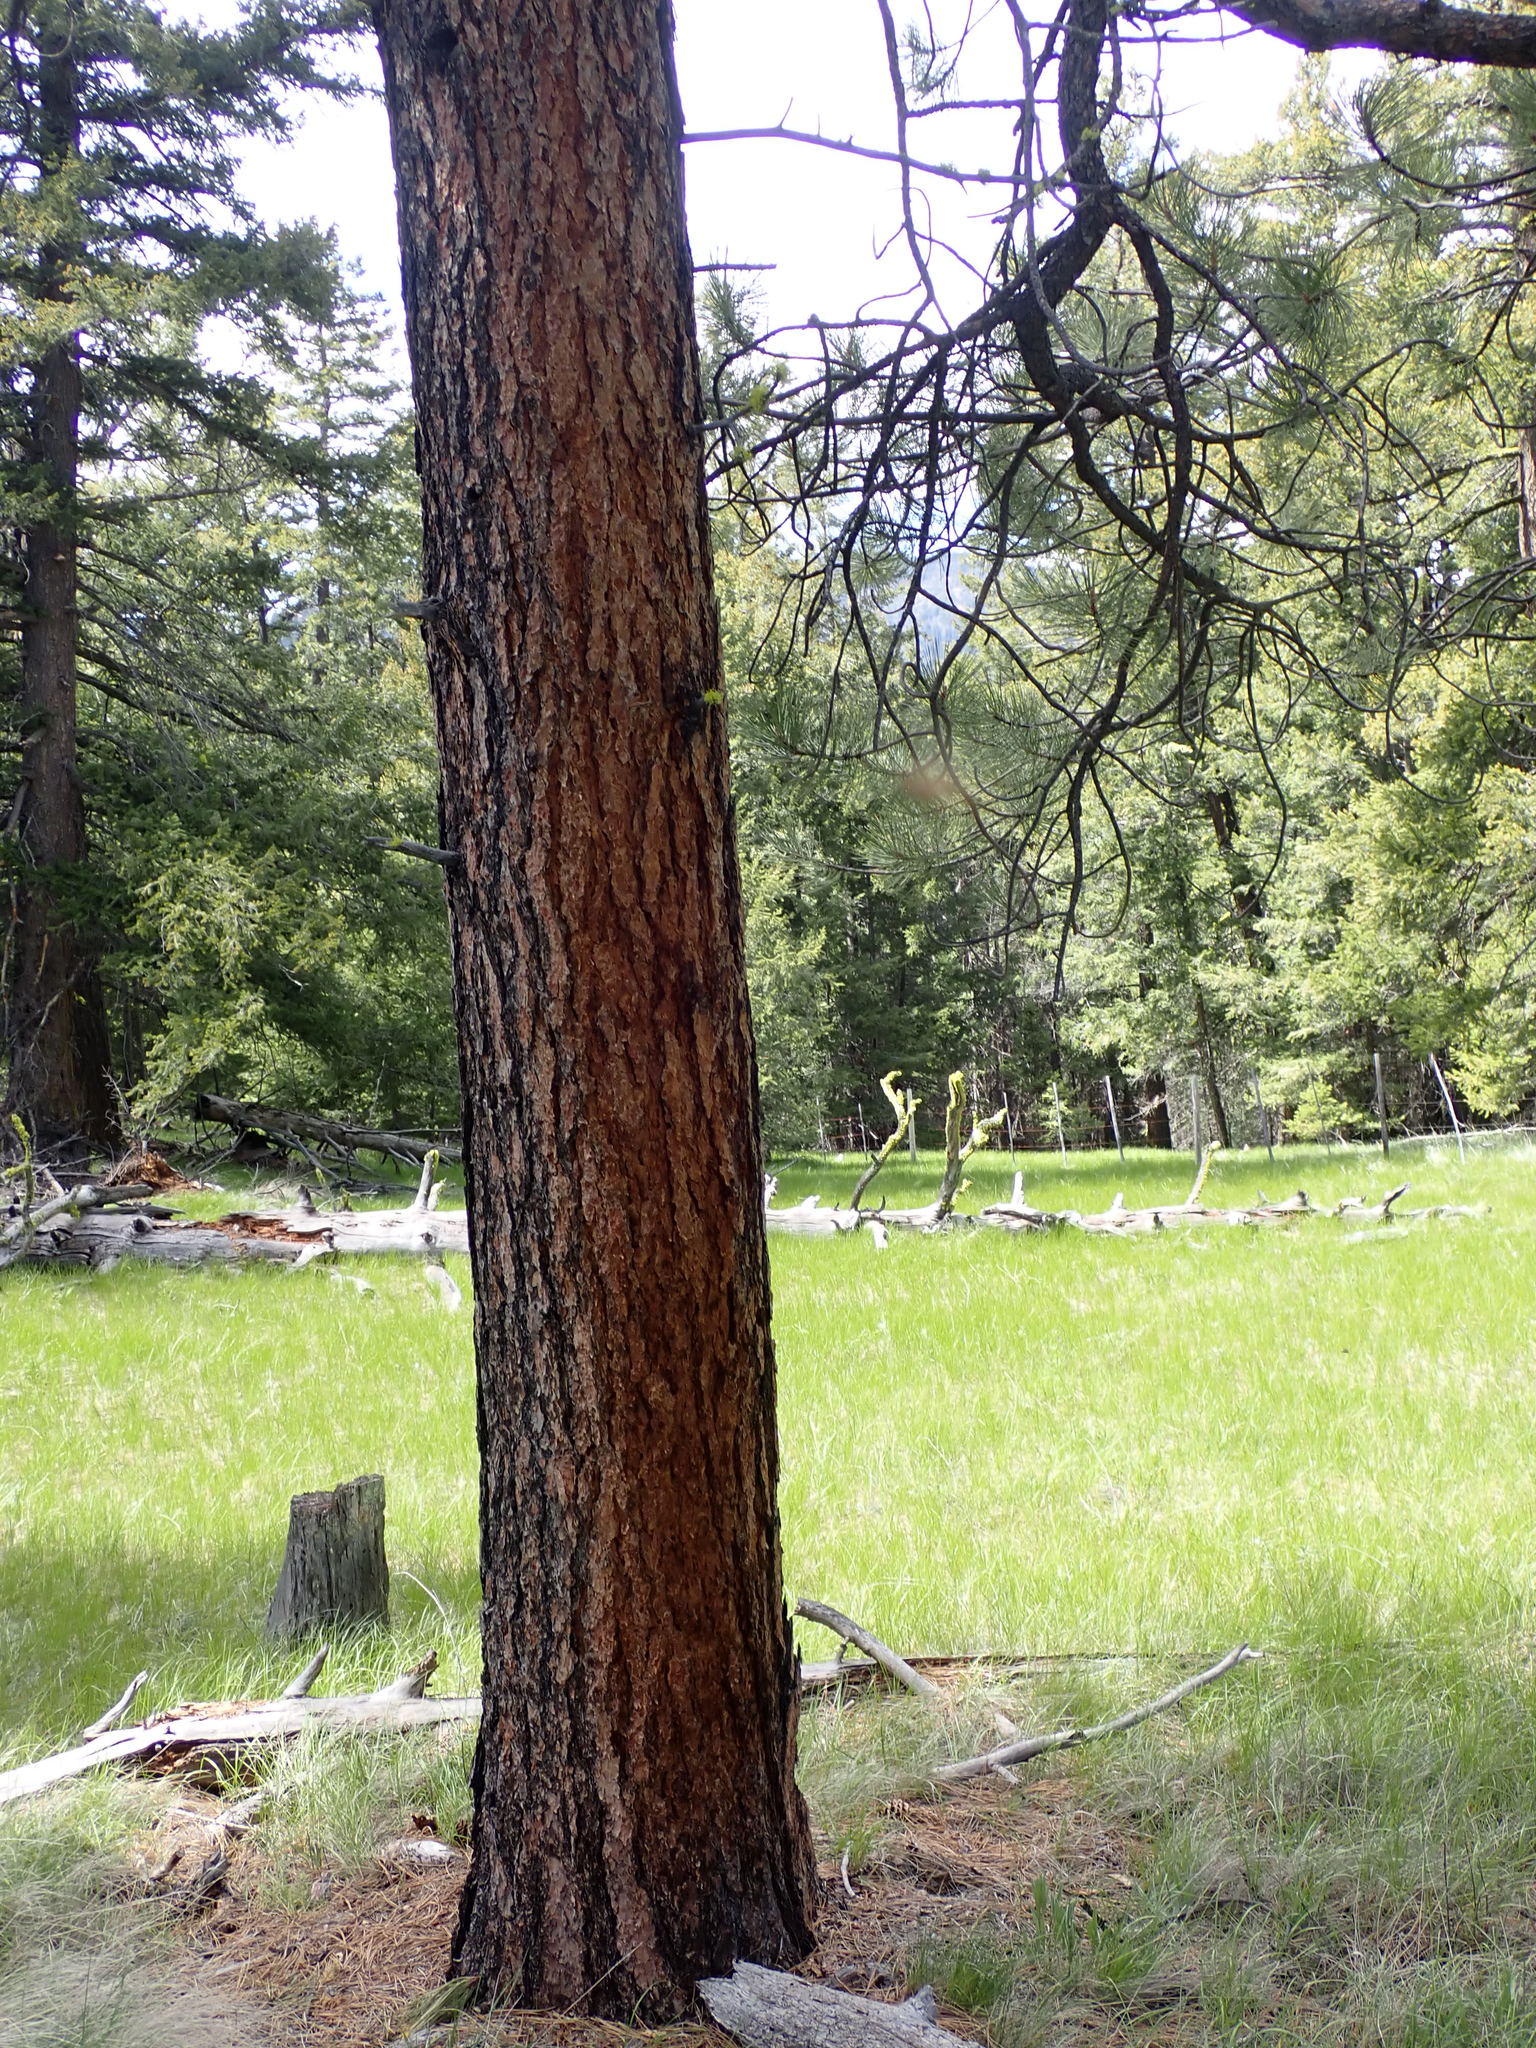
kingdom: Plantae
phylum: Tracheophyta
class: Pinopsida
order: Pinales
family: Pinaceae
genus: Pinus
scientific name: Pinus ponderosa
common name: Western yellow-pine
